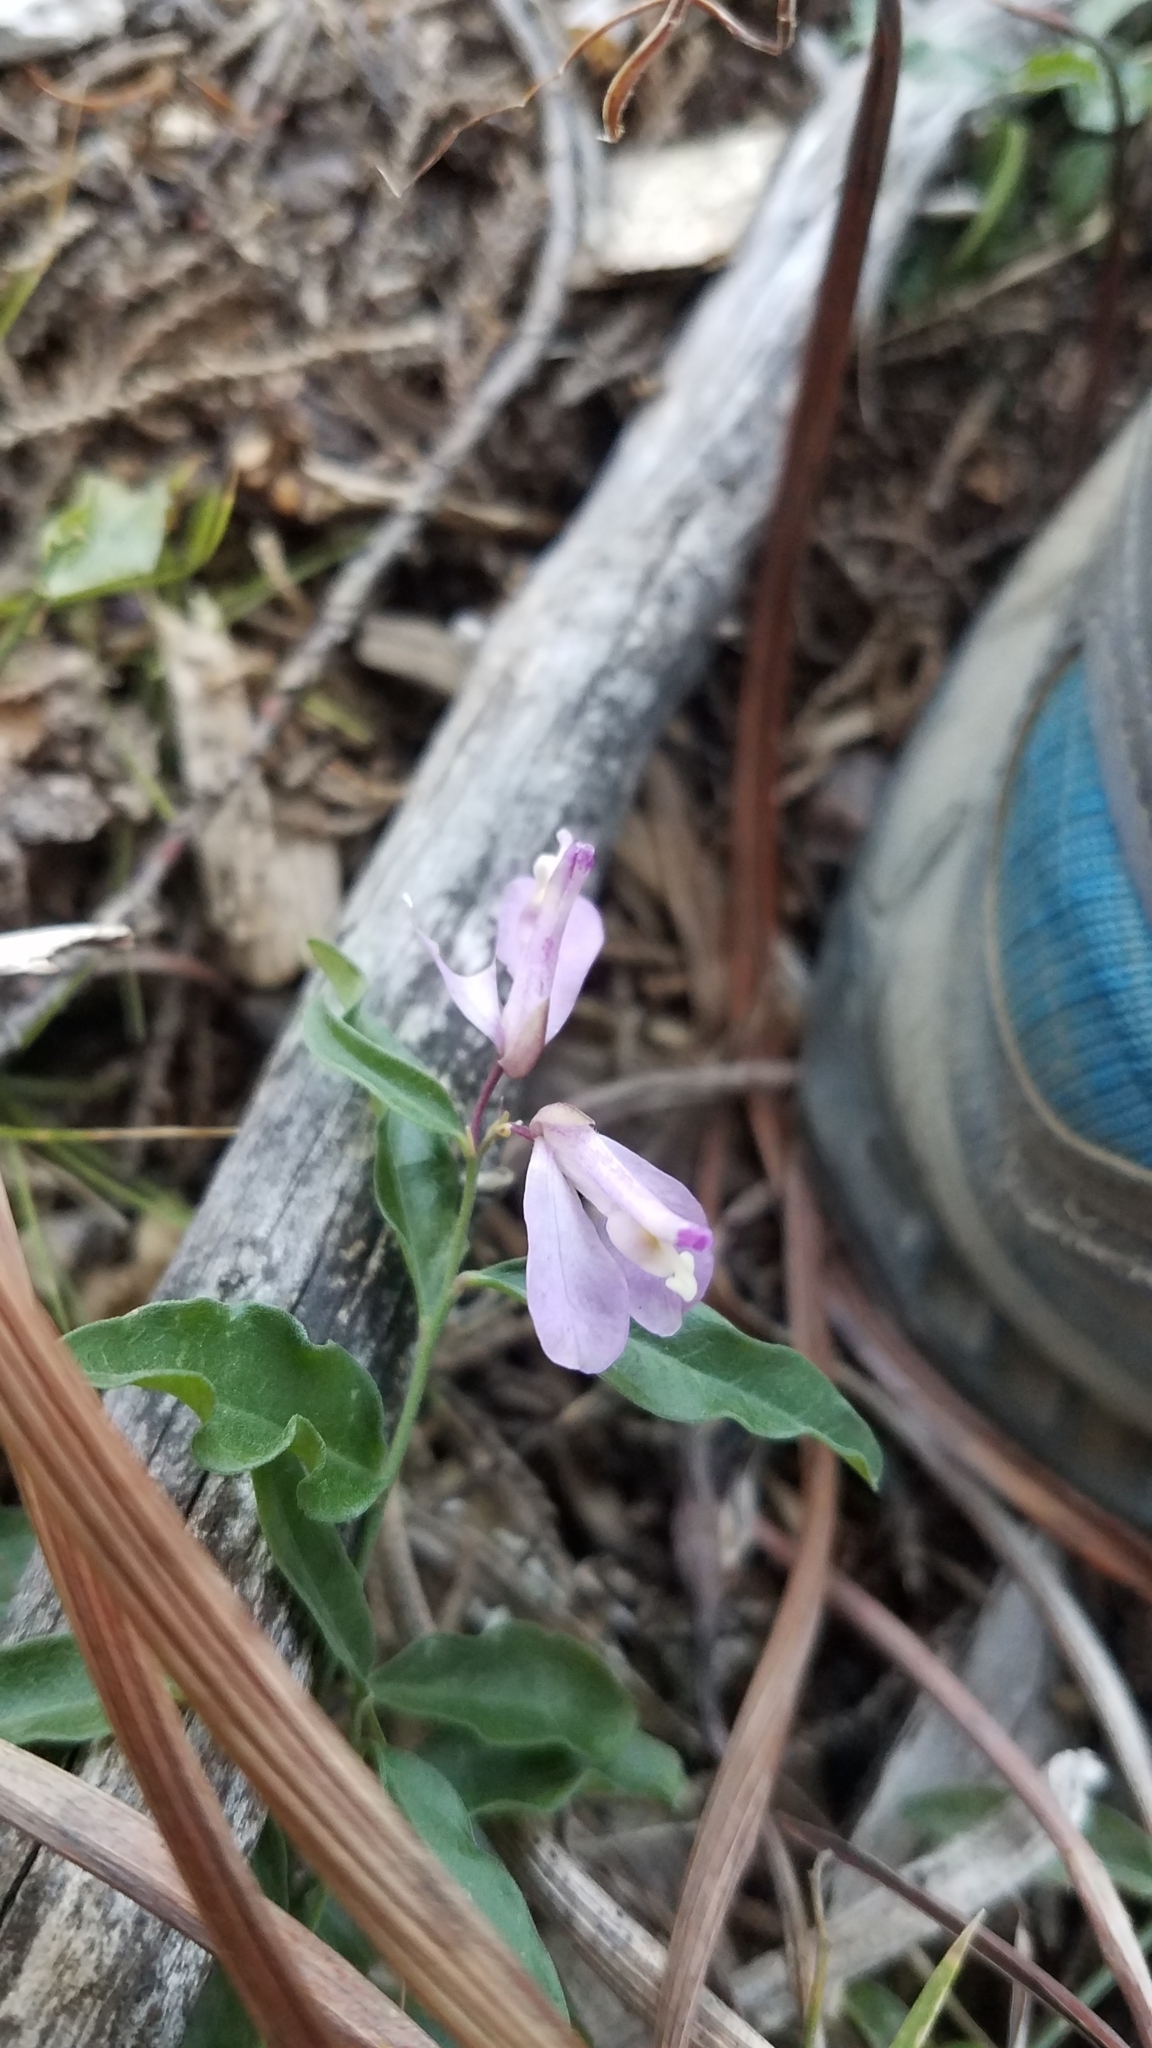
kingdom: Plantae
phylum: Tracheophyta
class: Magnoliopsida
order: Fabales
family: Polygalaceae
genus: Rhinotropis
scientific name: Rhinotropis californica
